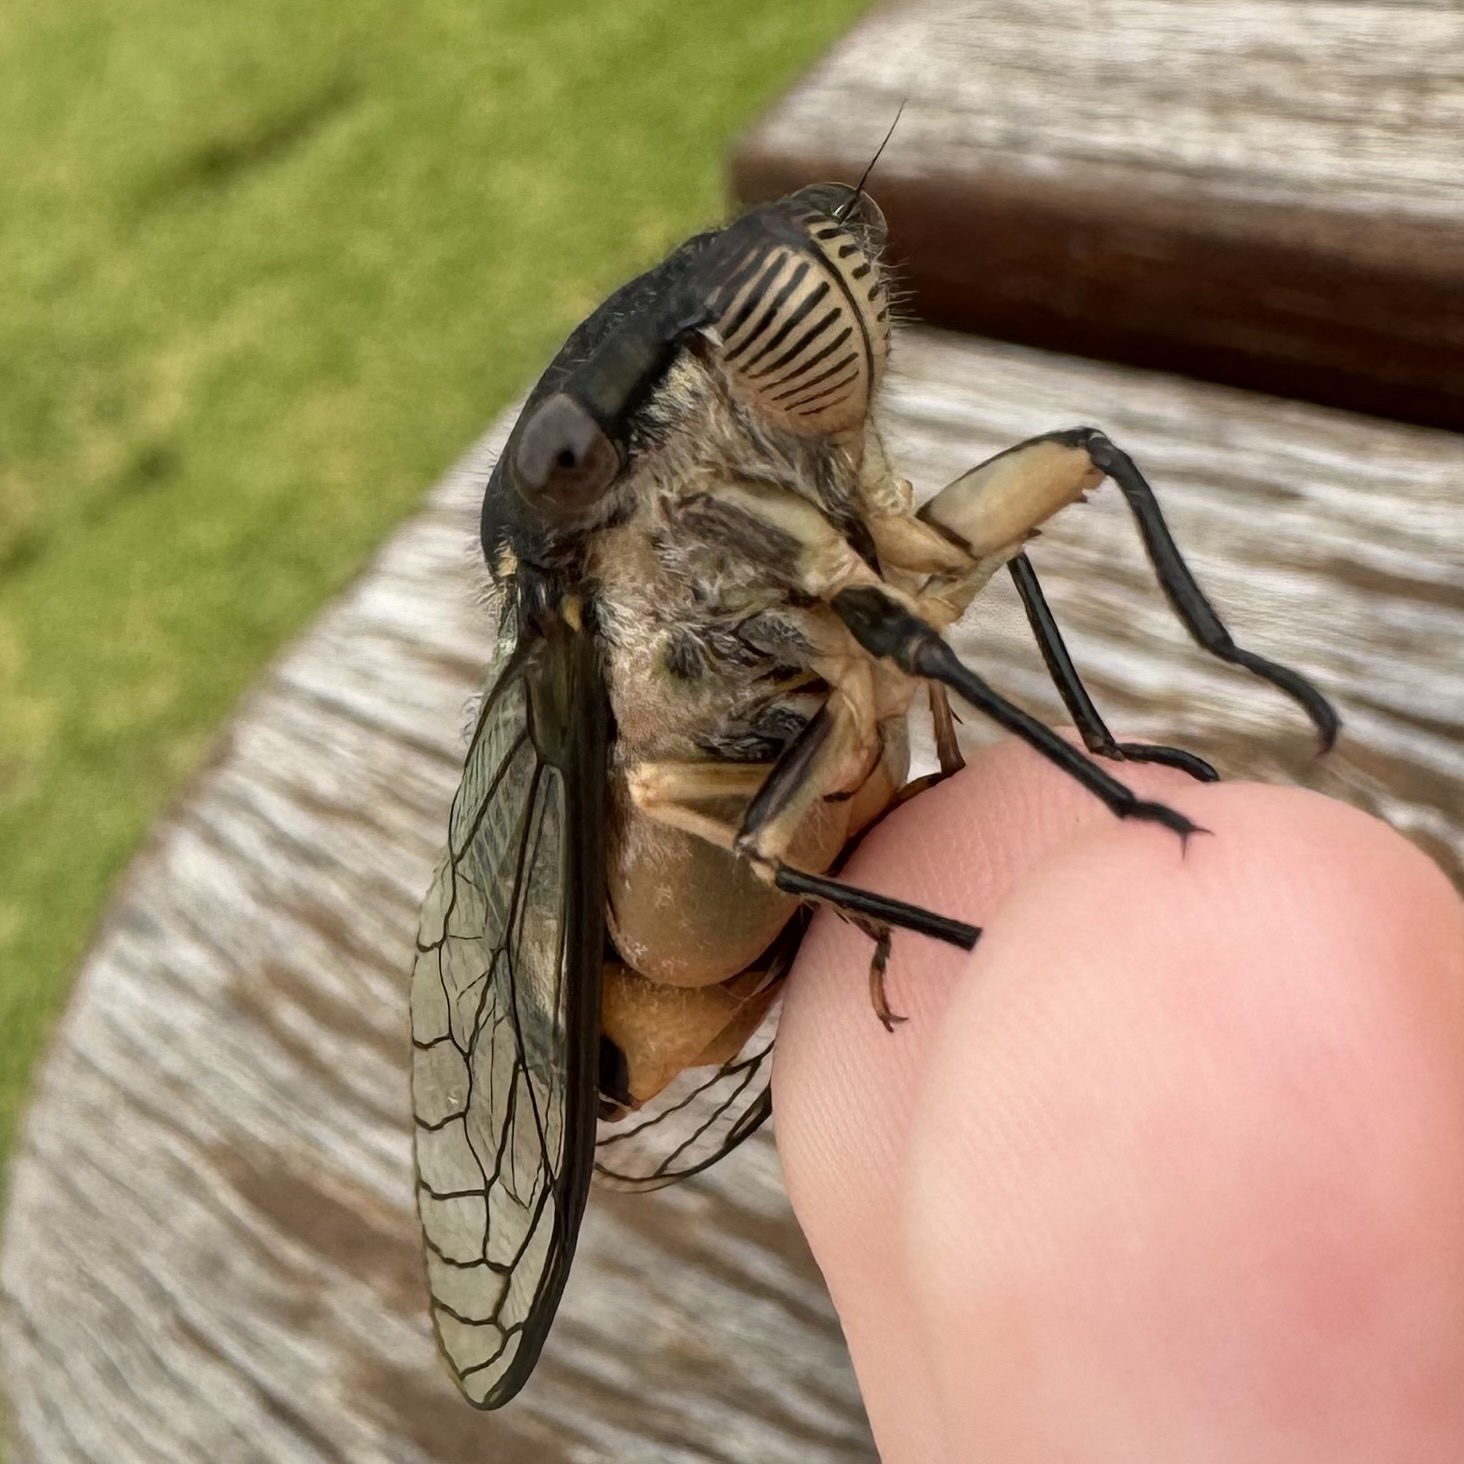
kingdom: Animalia
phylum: Arthropoda
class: Insecta
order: Hemiptera
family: Cicadidae
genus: Psaltoda
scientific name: Psaltoda mossi
